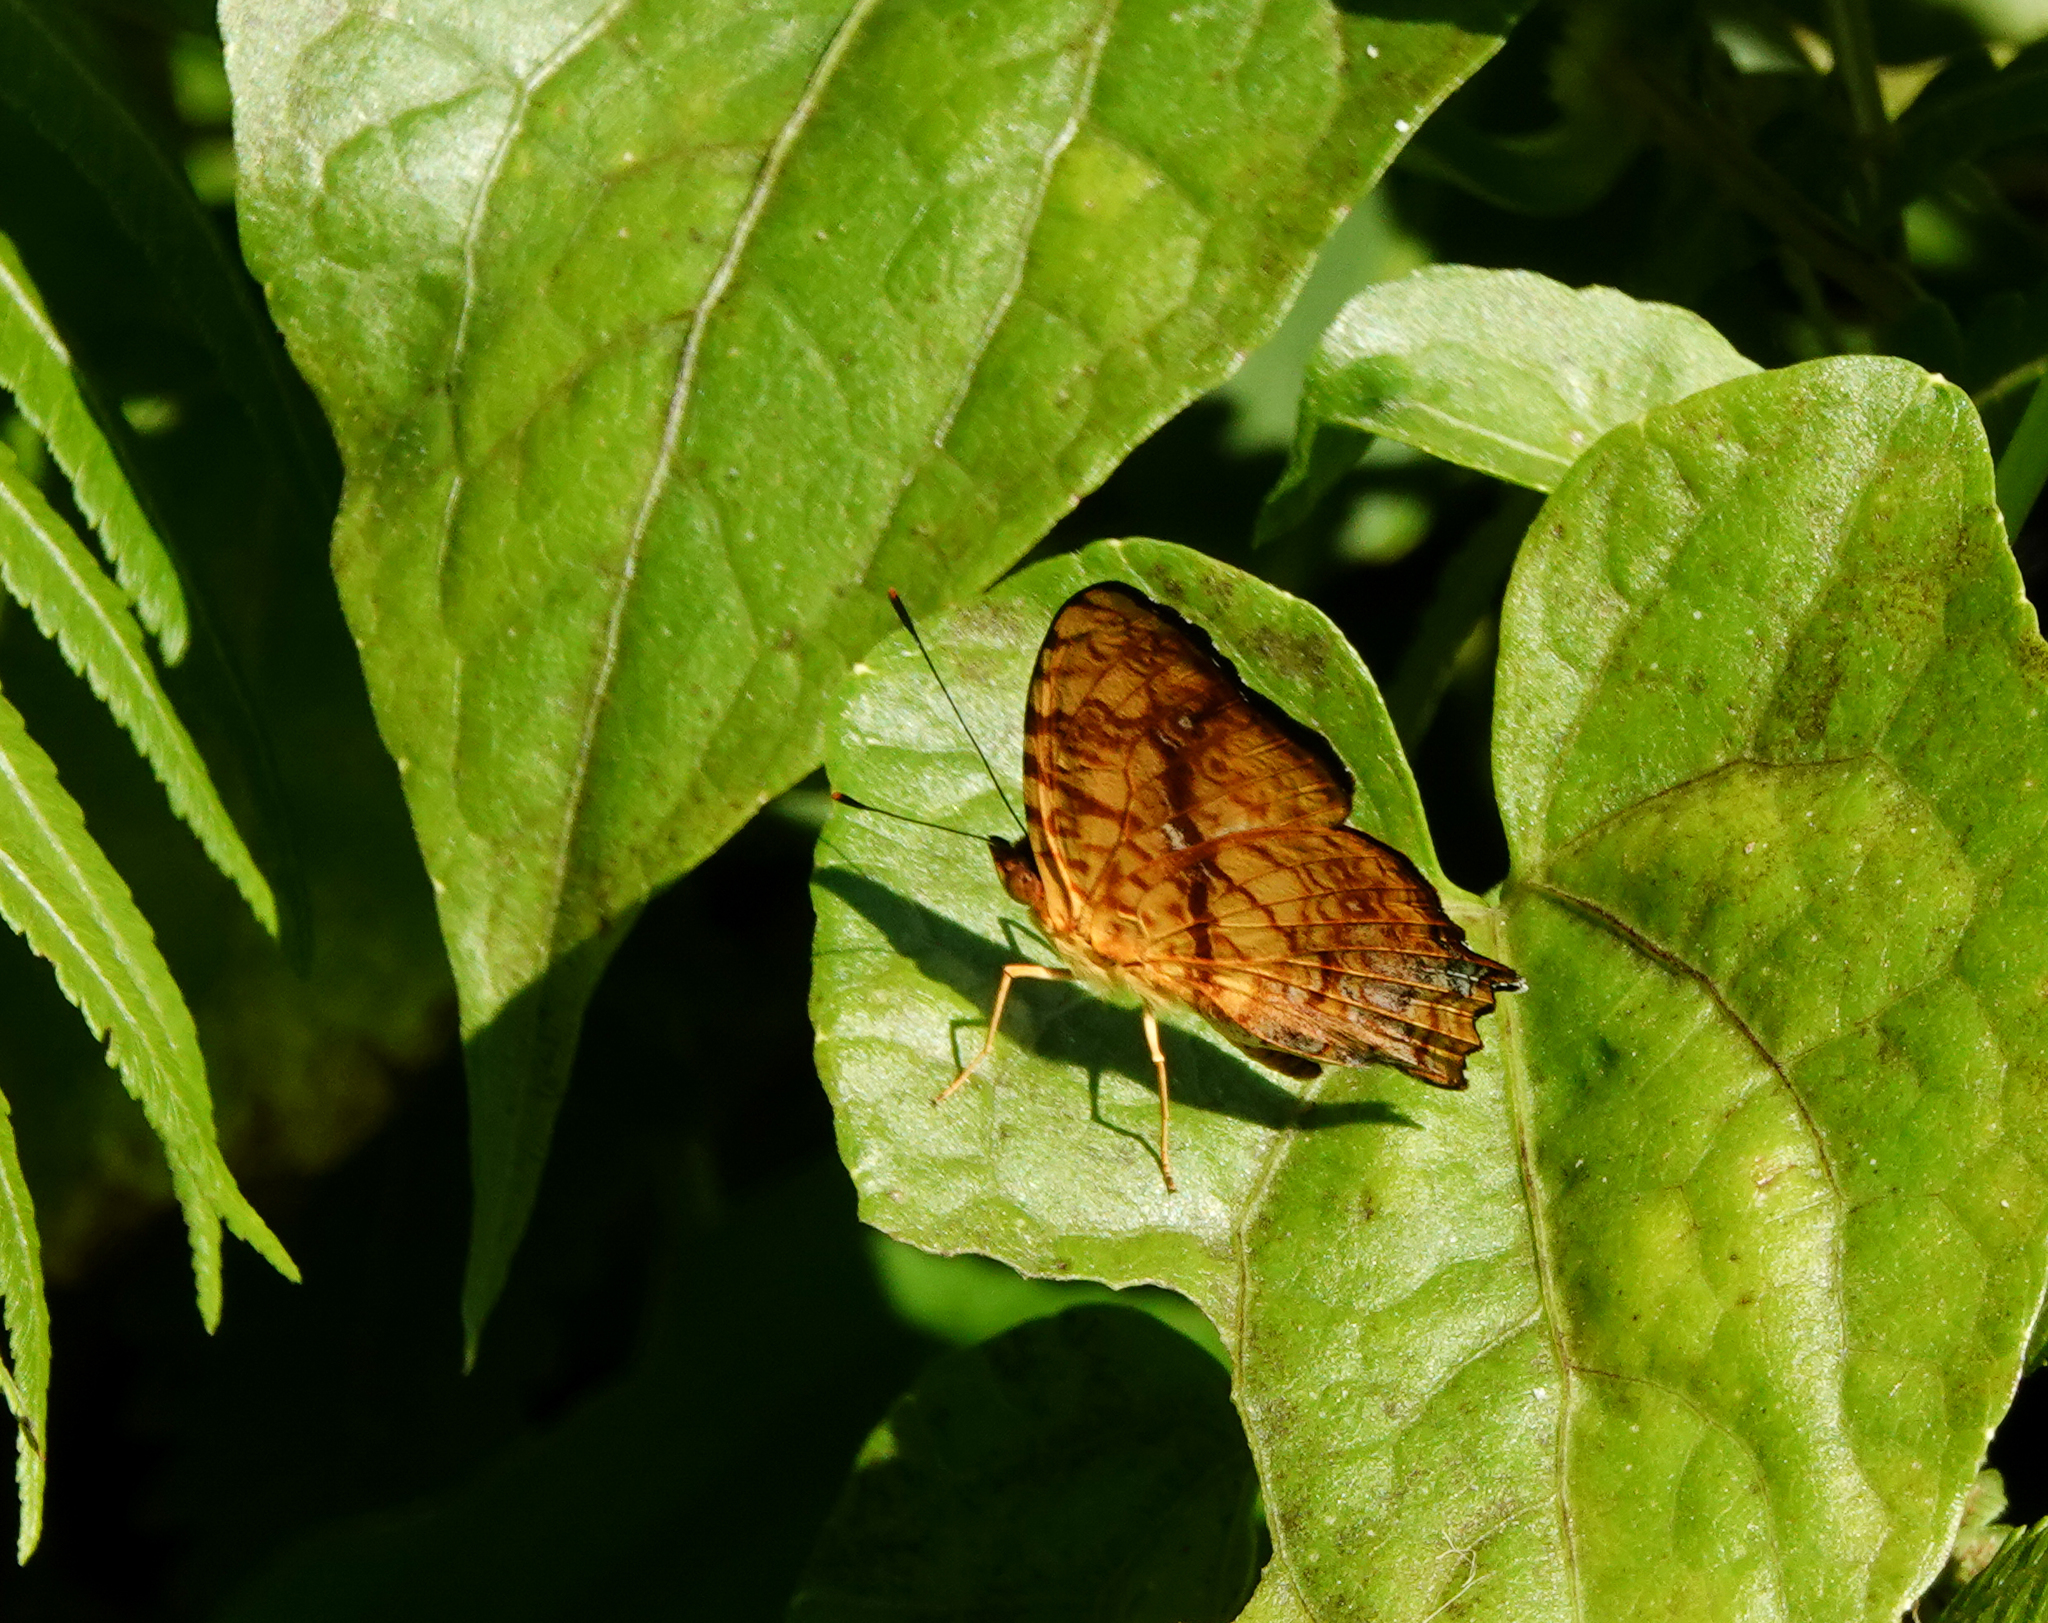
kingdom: Animalia
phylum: Arthropoda
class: Insecta
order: Lepidoptera
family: Nymphalidae
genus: Symbrenthia
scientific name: Symbrenthia hypselis
